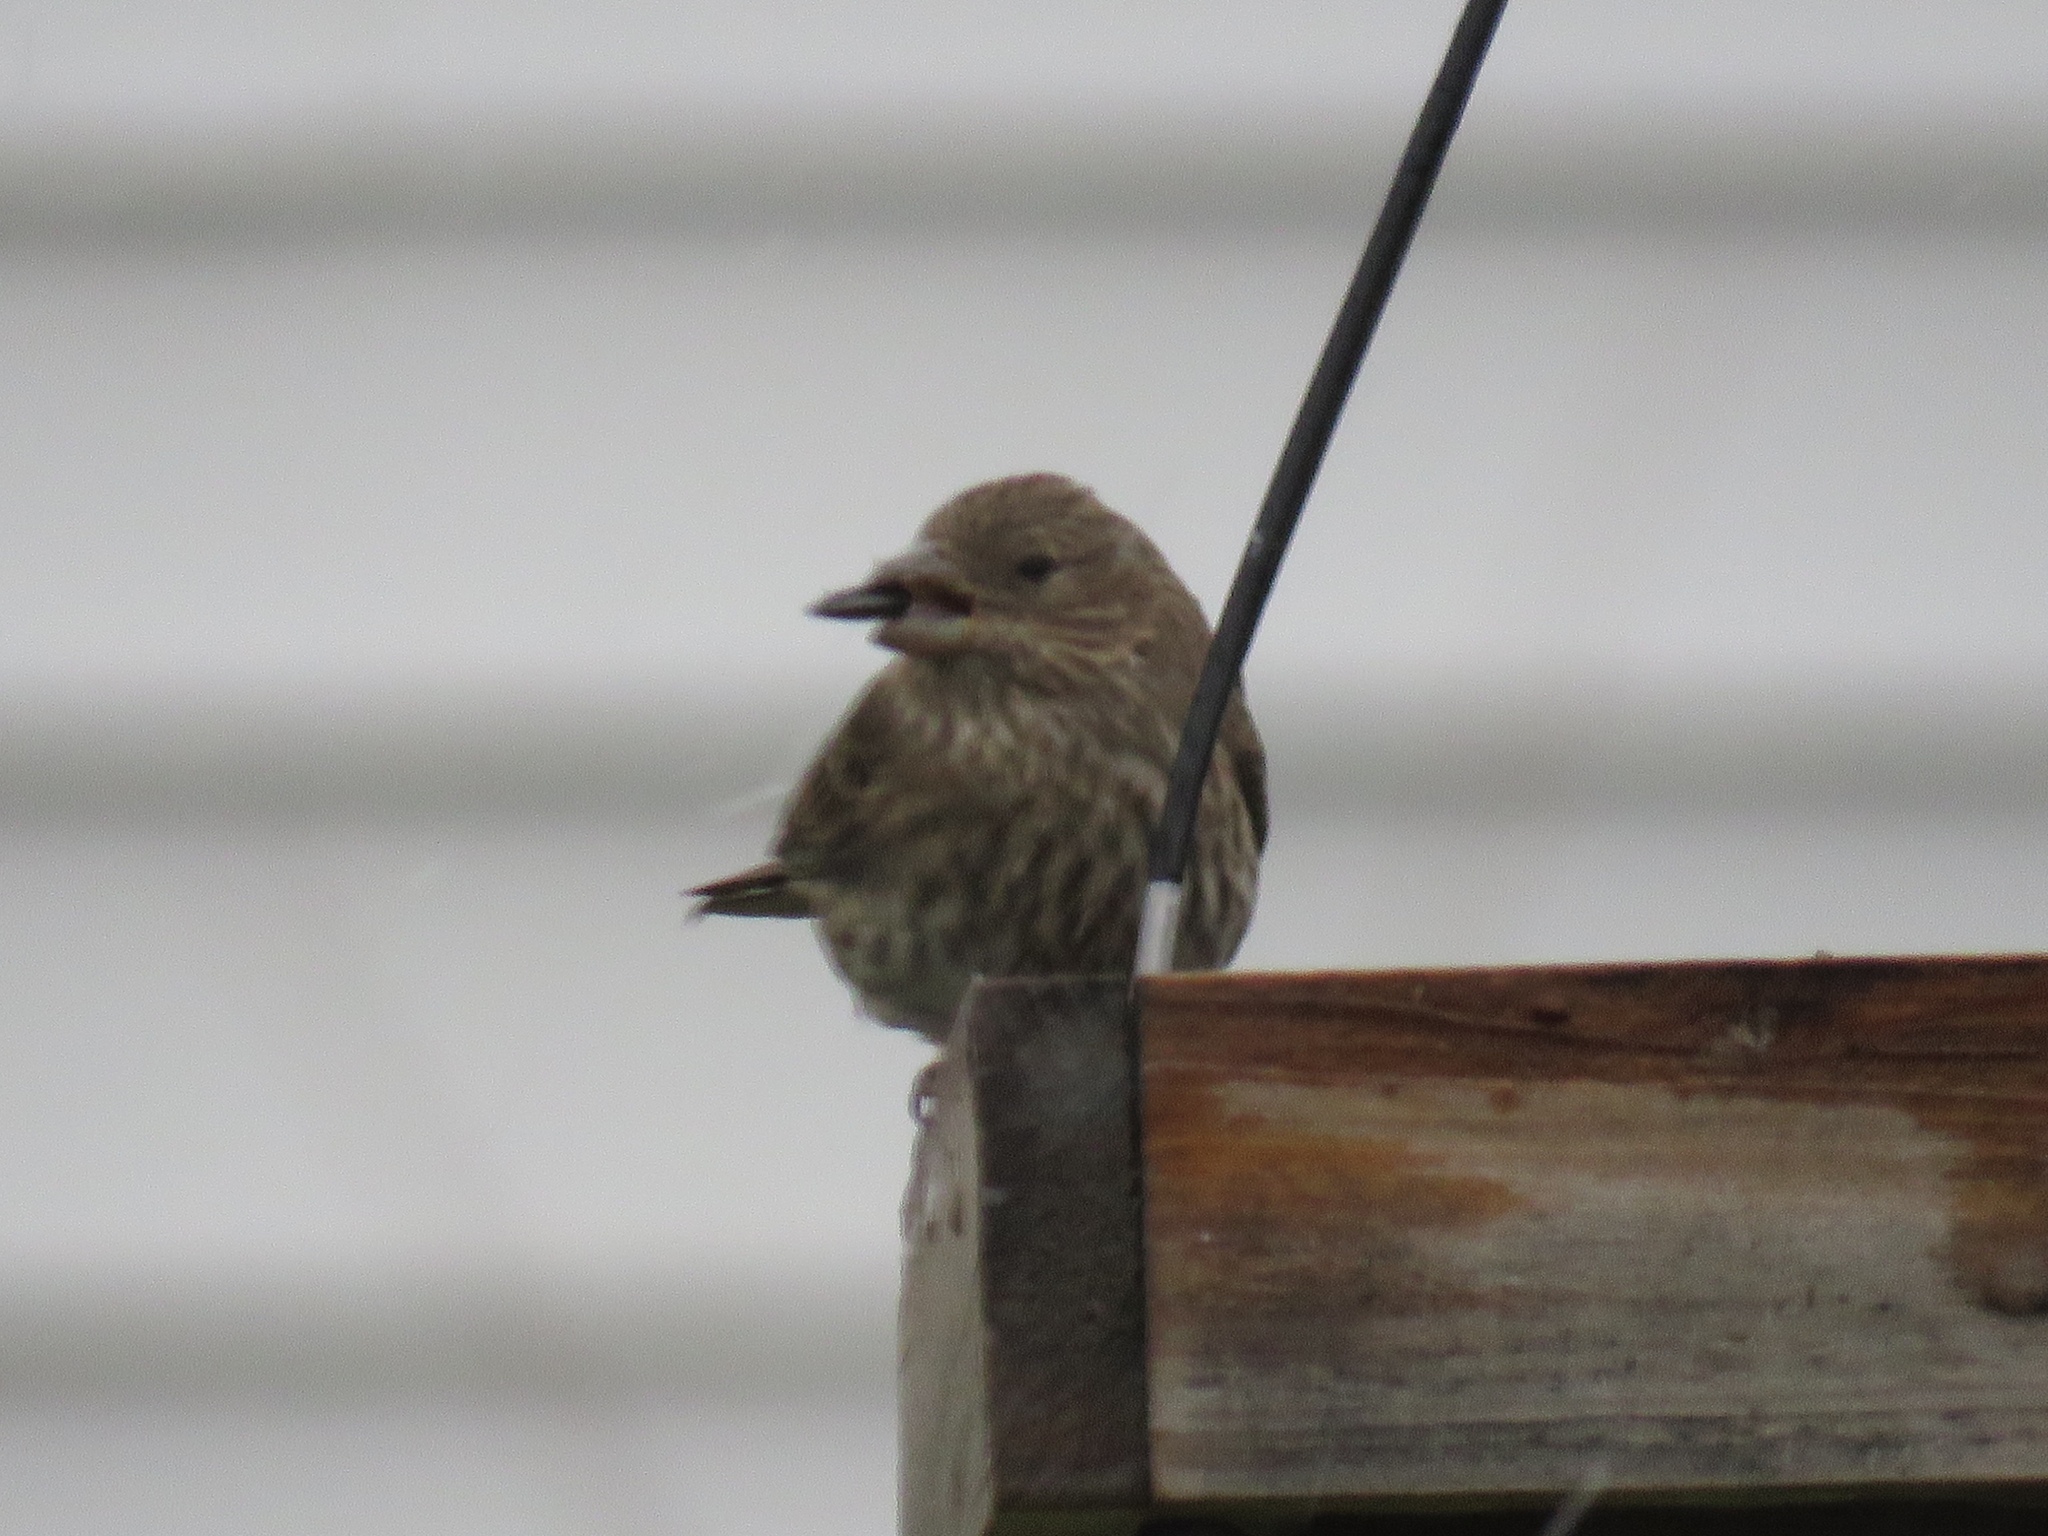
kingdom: Animalia
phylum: Chordata
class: Aves
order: Passeriformes
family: Fringillidae
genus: Haemorhous
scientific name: Haemorhous mexicanus
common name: House finch
